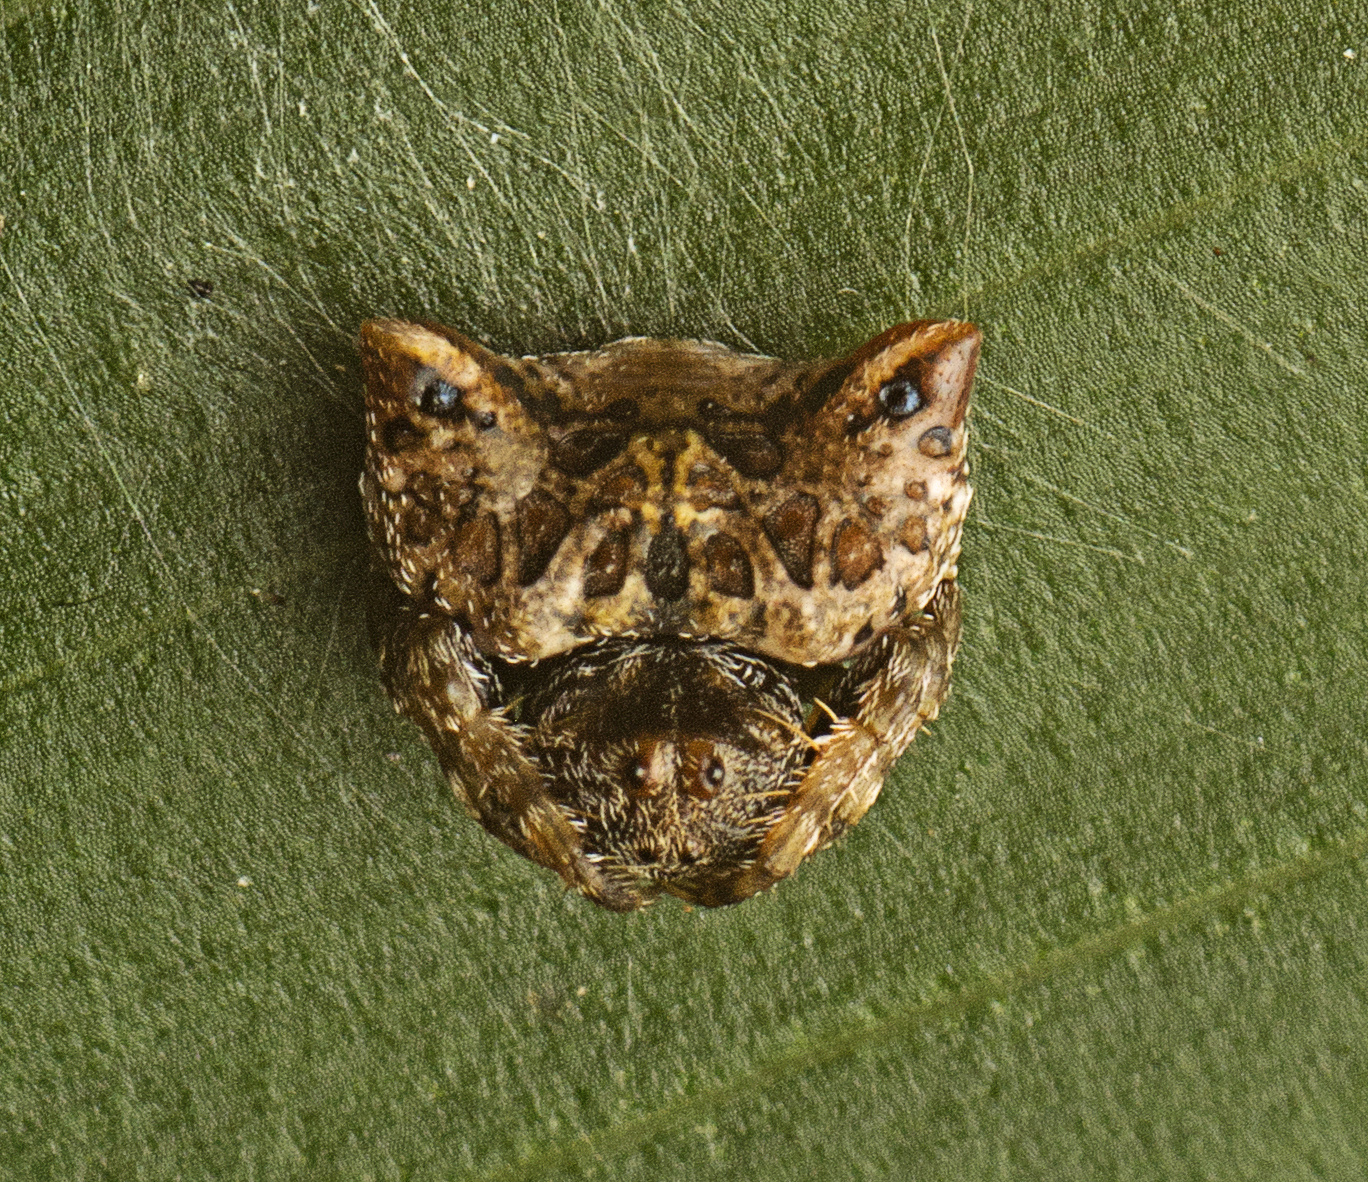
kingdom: Animalia
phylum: Arthropoda
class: Arachnida
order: Araneae
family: Arkyidae
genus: Arkys
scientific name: Arkys curtulus
